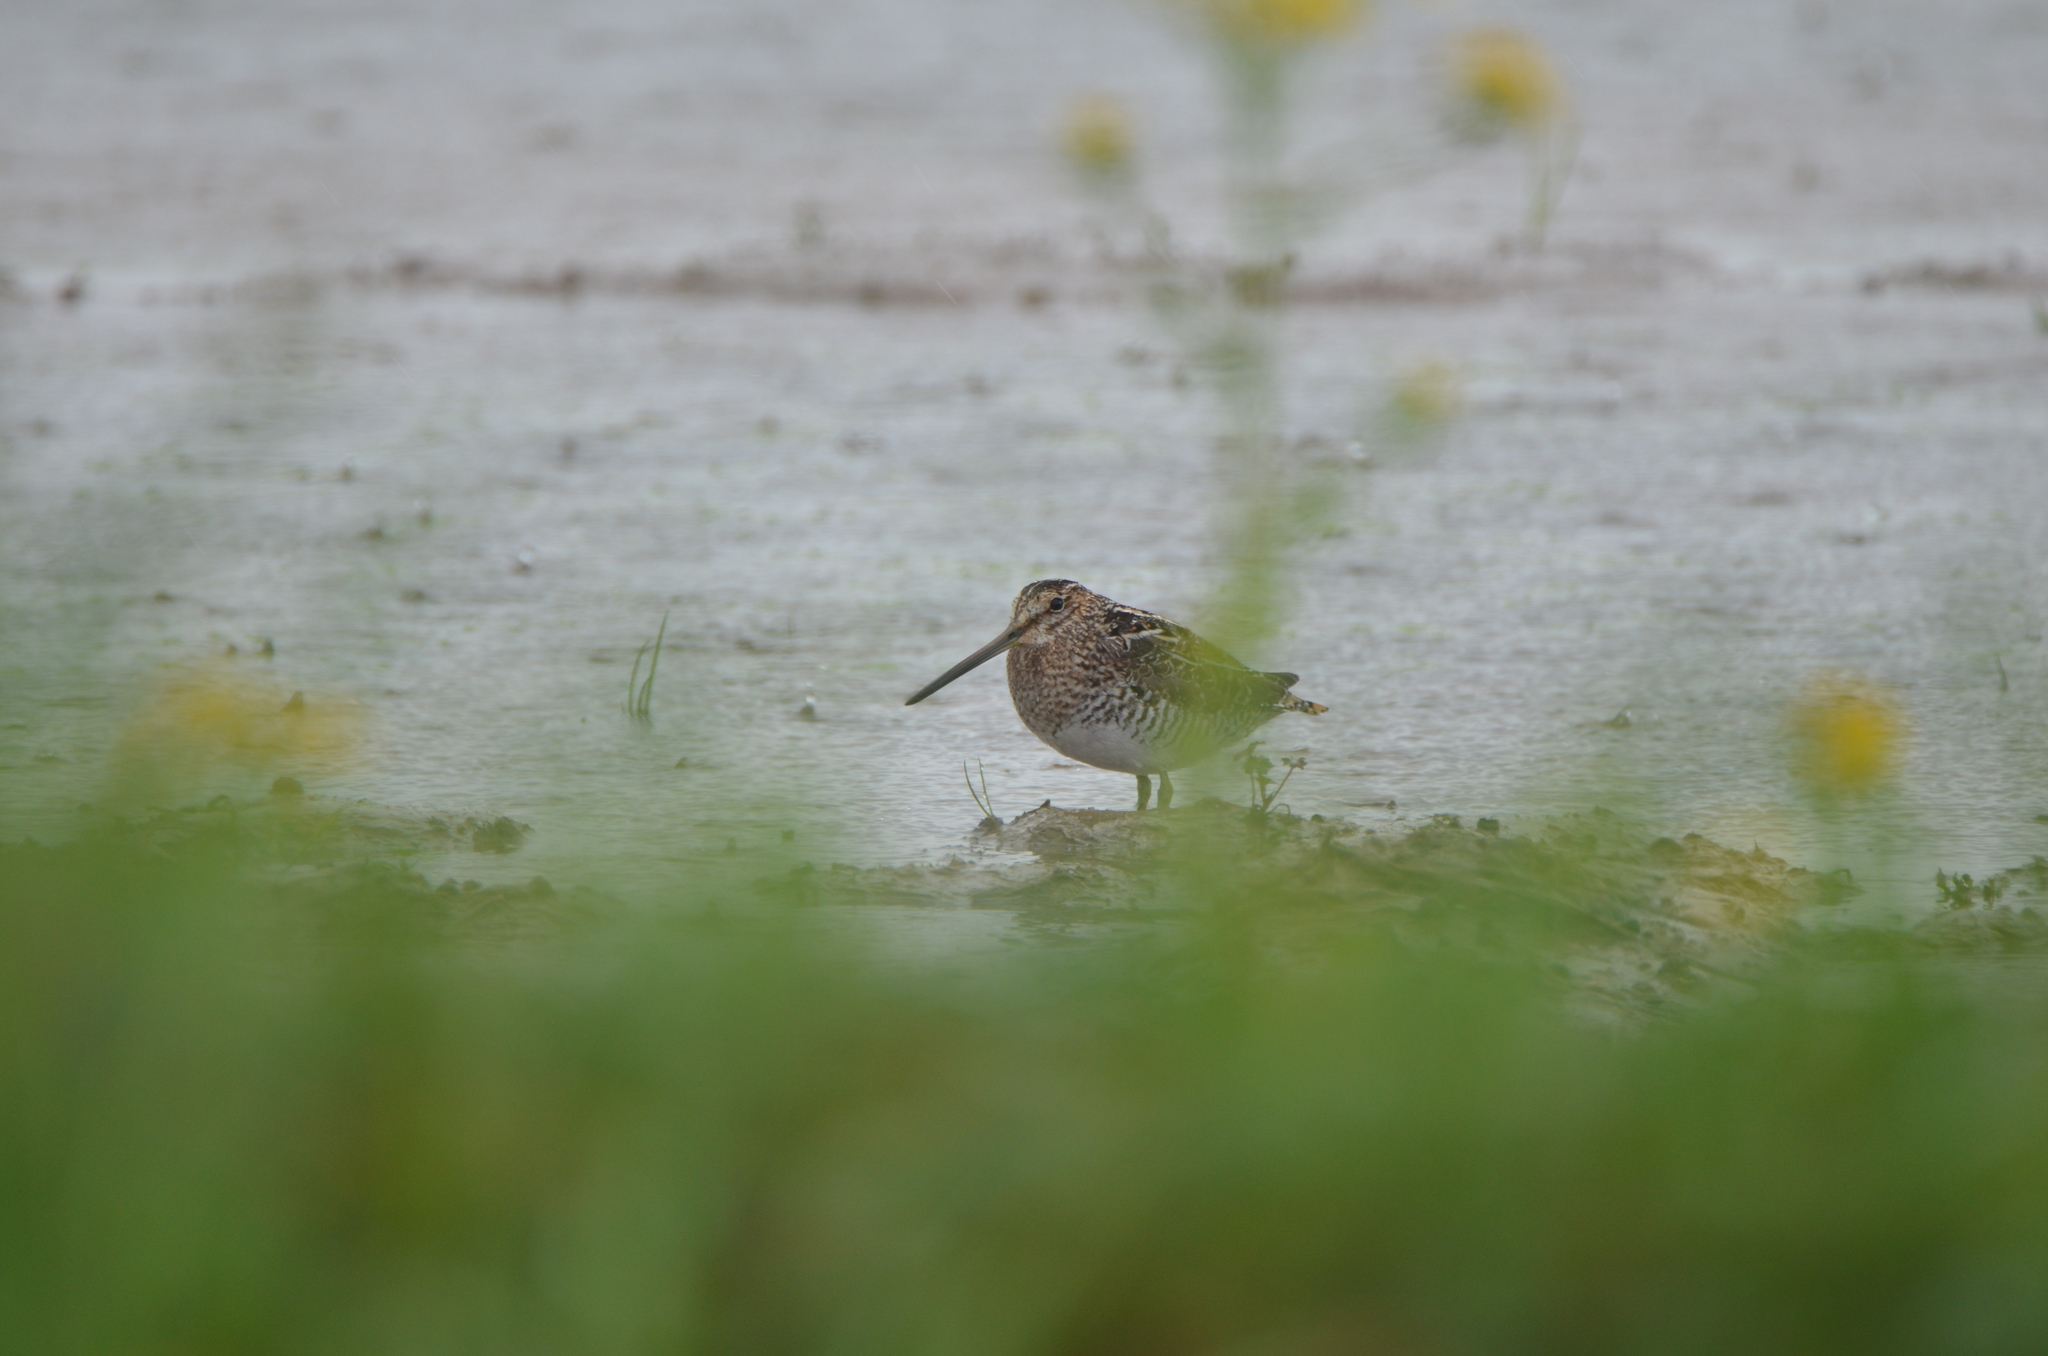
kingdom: Animalia
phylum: Chordata
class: Aves
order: Charadriiformes
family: Scolopacidae
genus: Gallinago
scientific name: Gallinago delicata
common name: Wilson's snipe
